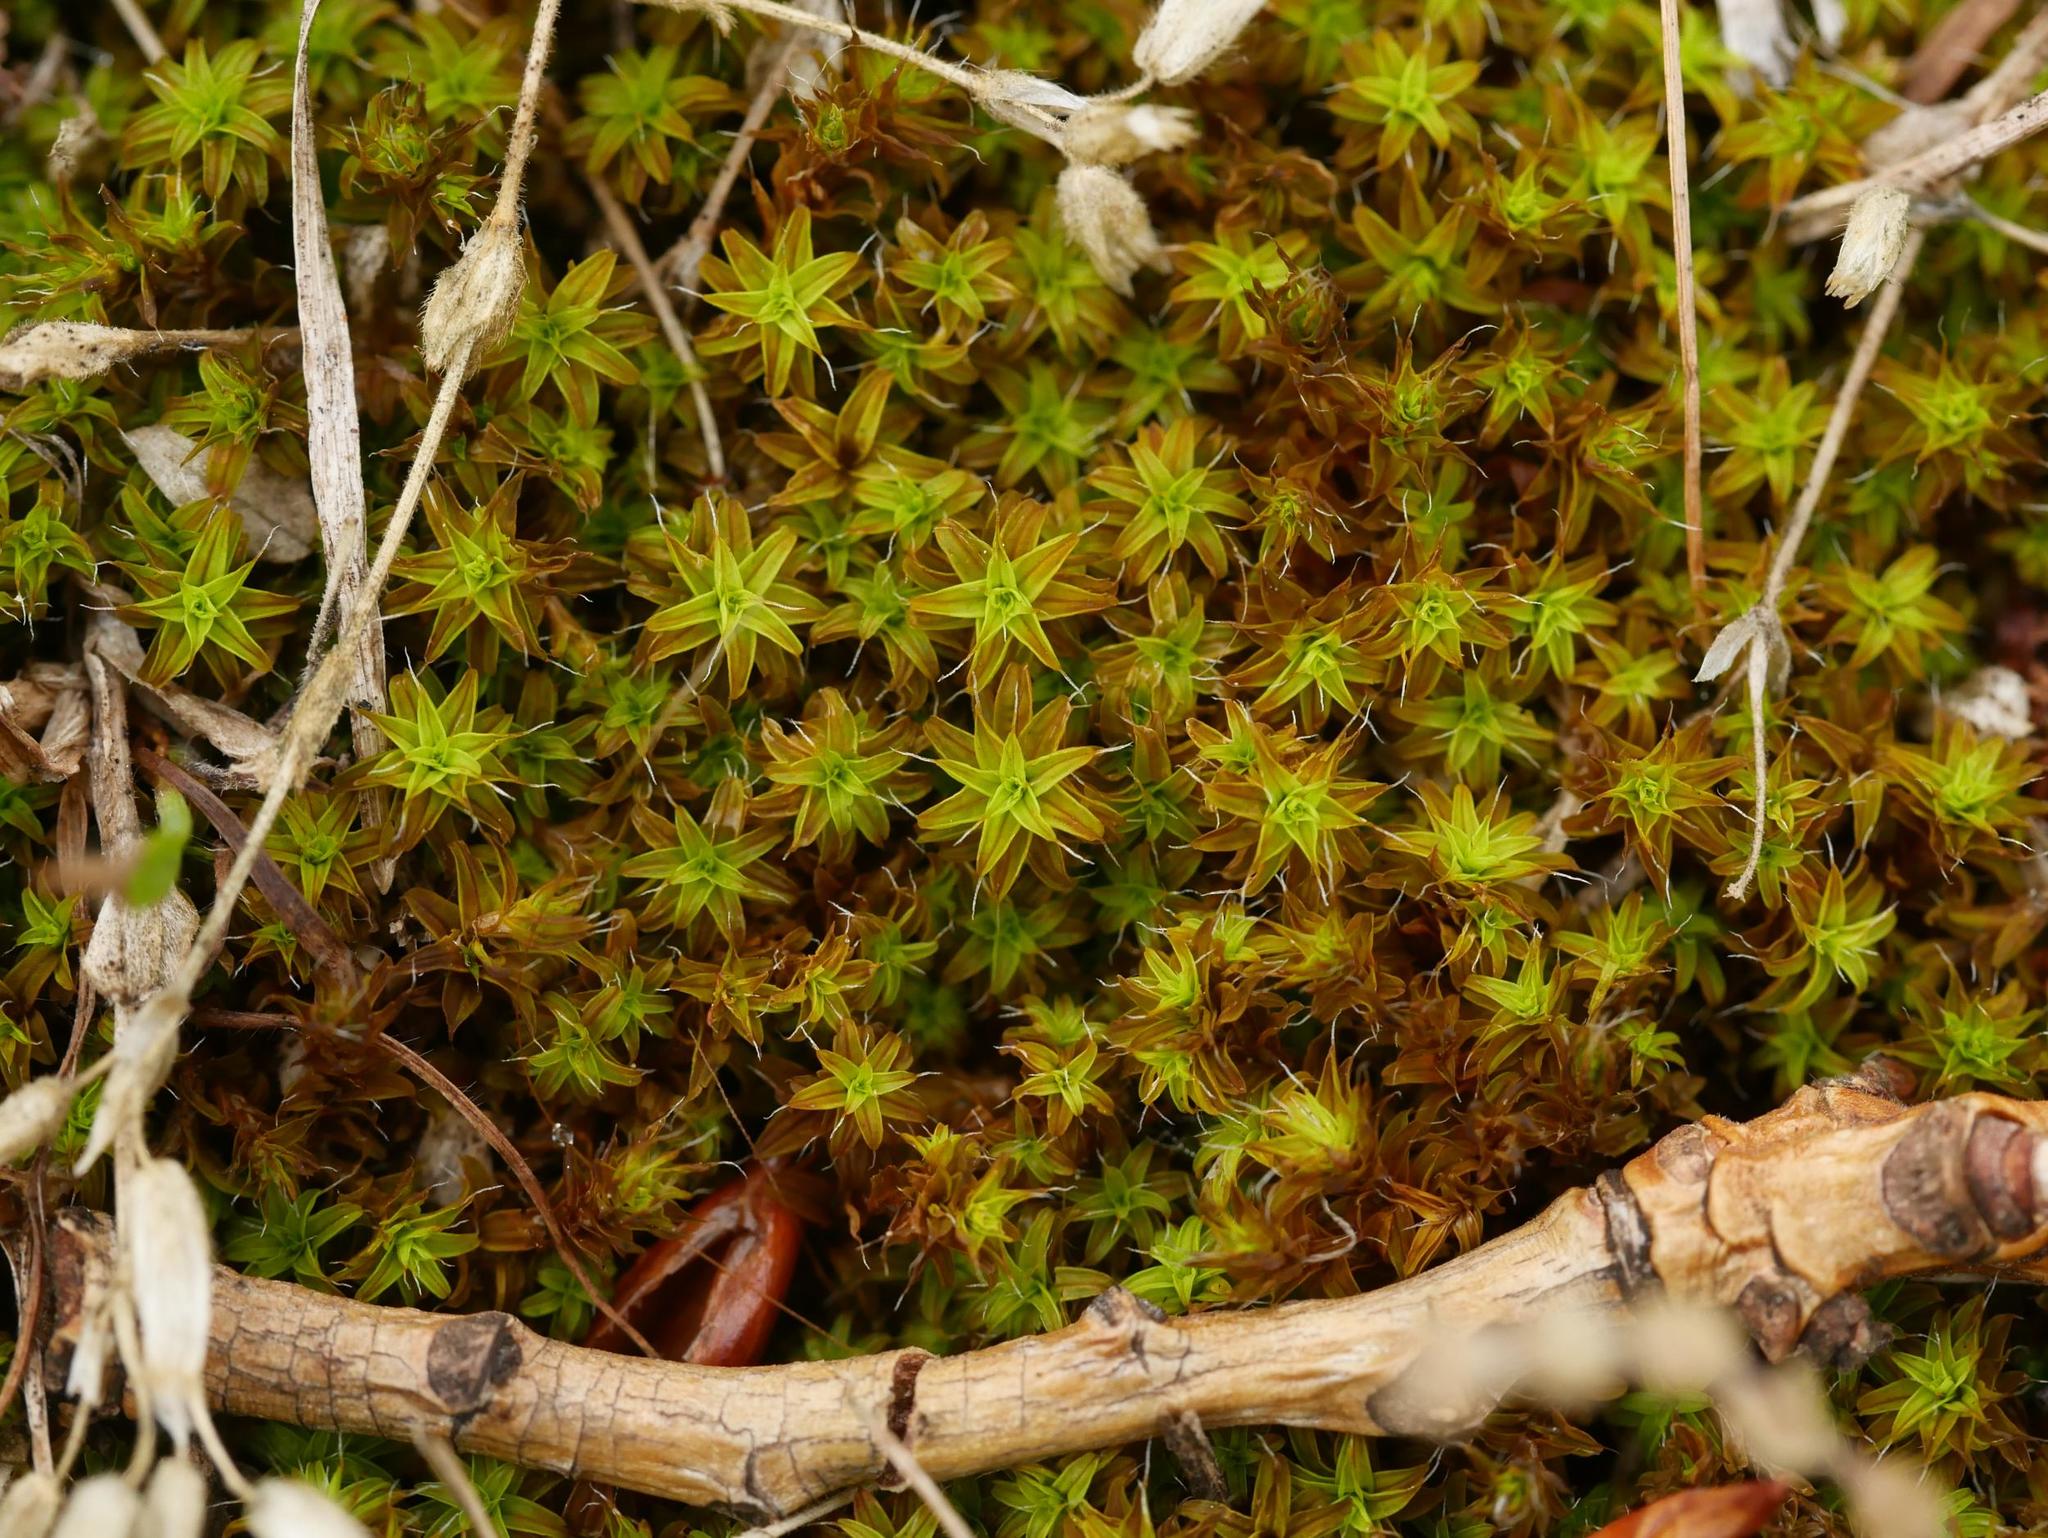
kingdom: Plantae
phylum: Bryophyta
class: Bryopsida
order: Pottiales
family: Pottiaceae
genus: Syntrichia
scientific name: Syntrichia ruralis
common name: Sidewalk screw moss
